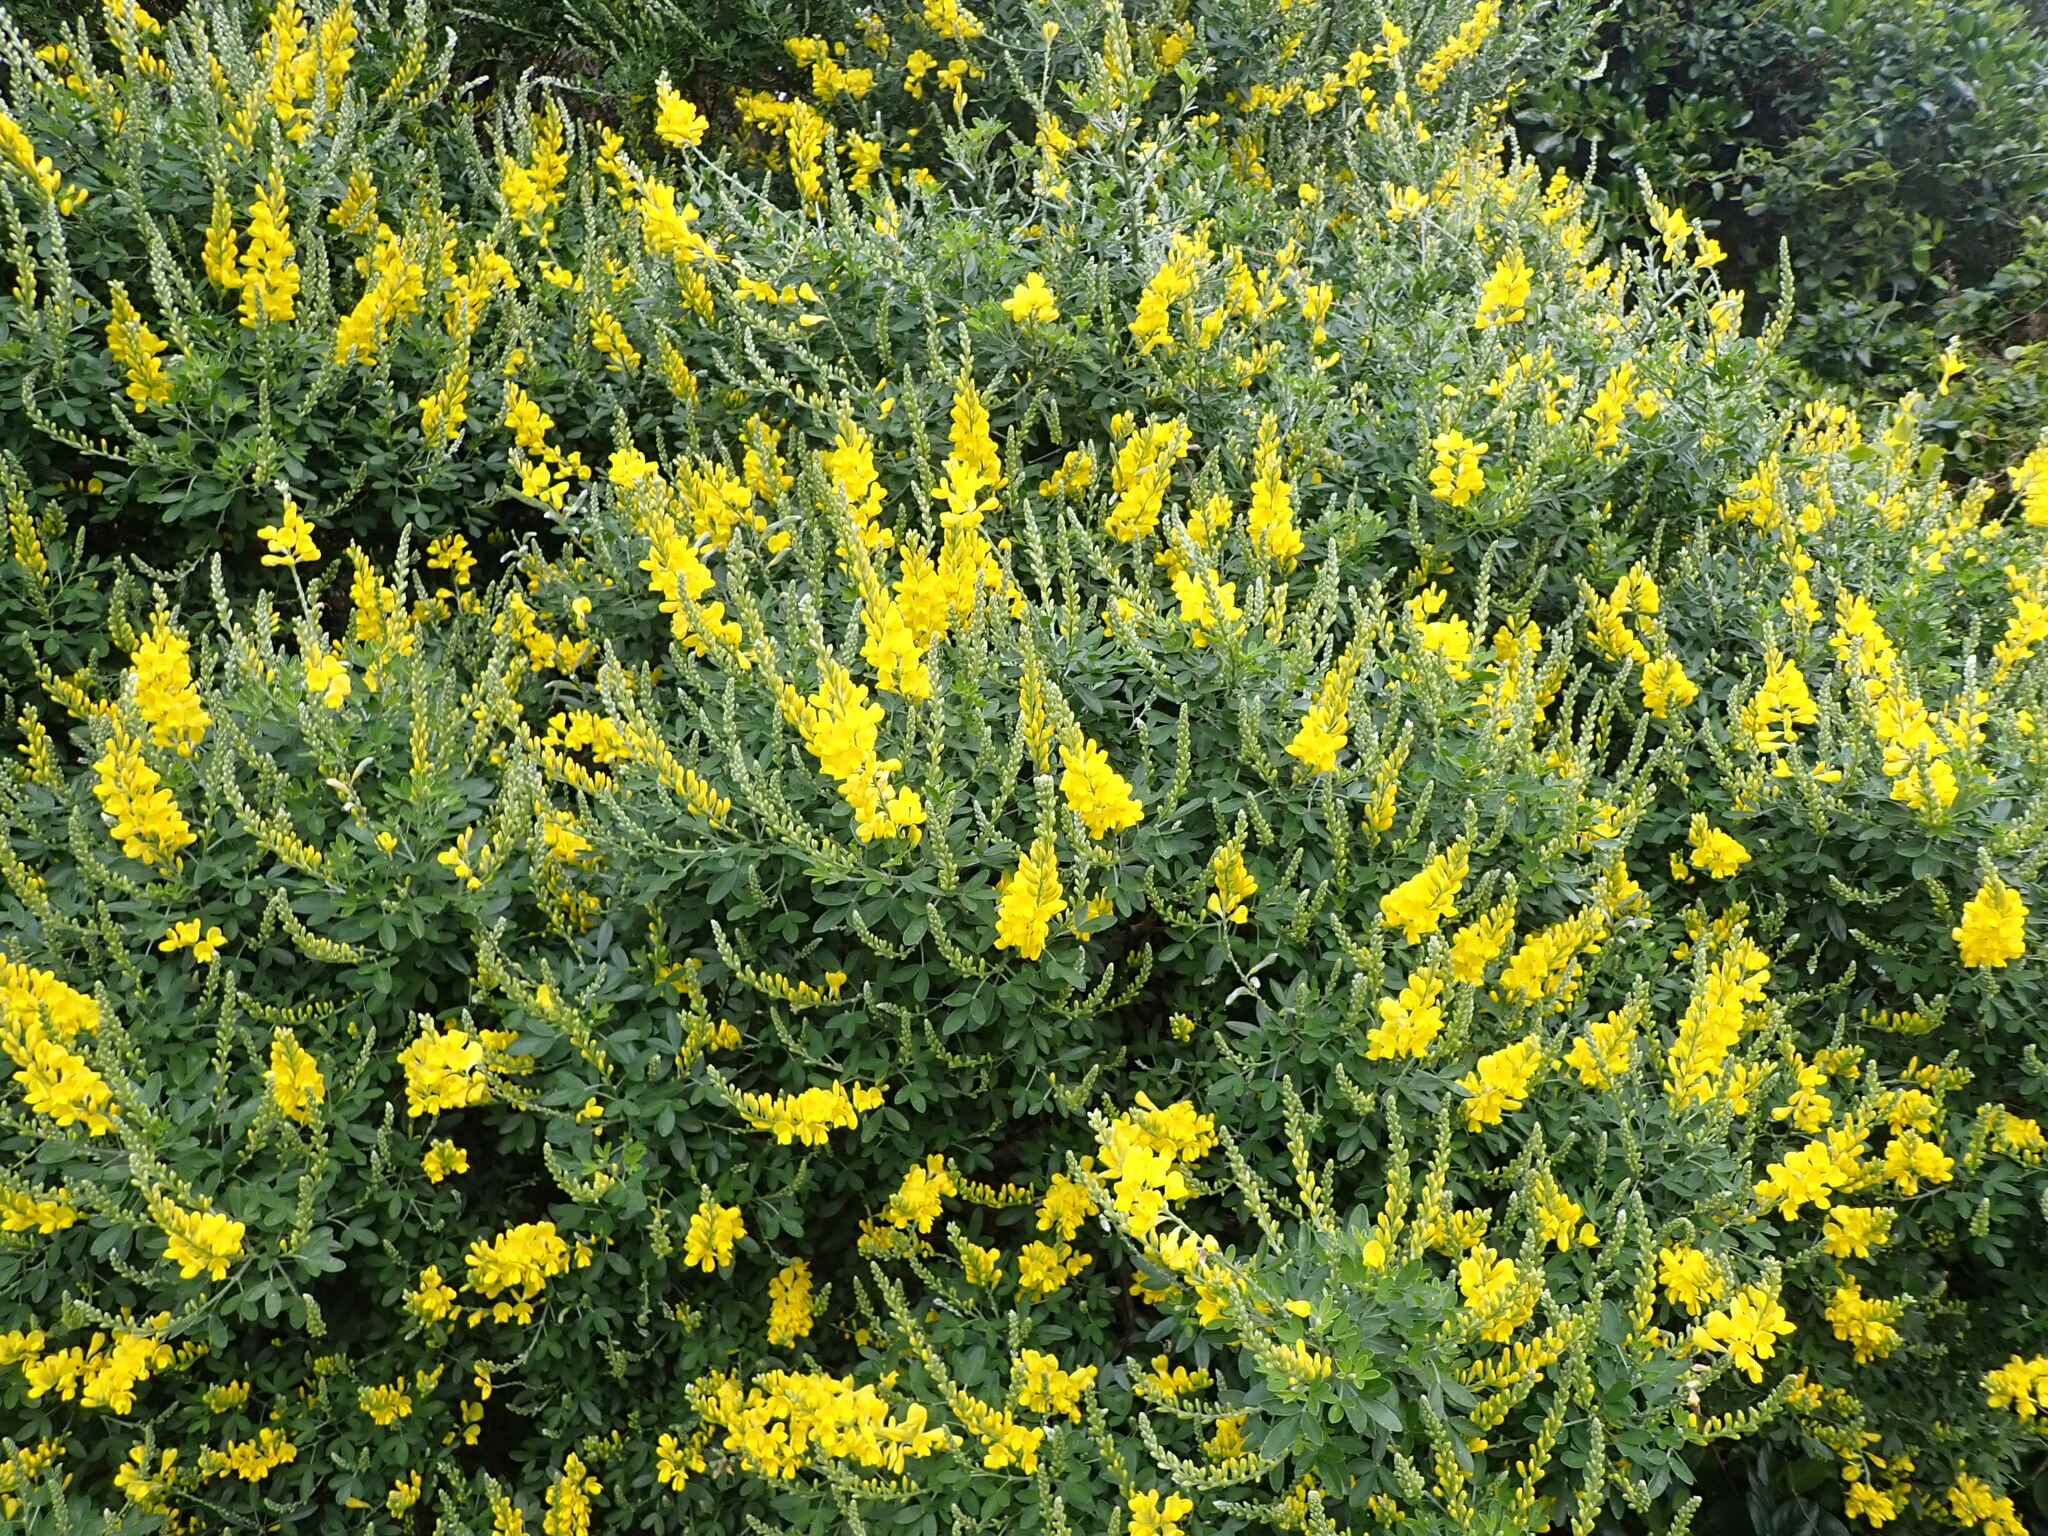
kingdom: Plantae
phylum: Tracheophyta
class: Magnoliopsida
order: Fabales
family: Fabaceae
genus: Genista
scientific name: Genista stenopetala
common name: Leafy broom
